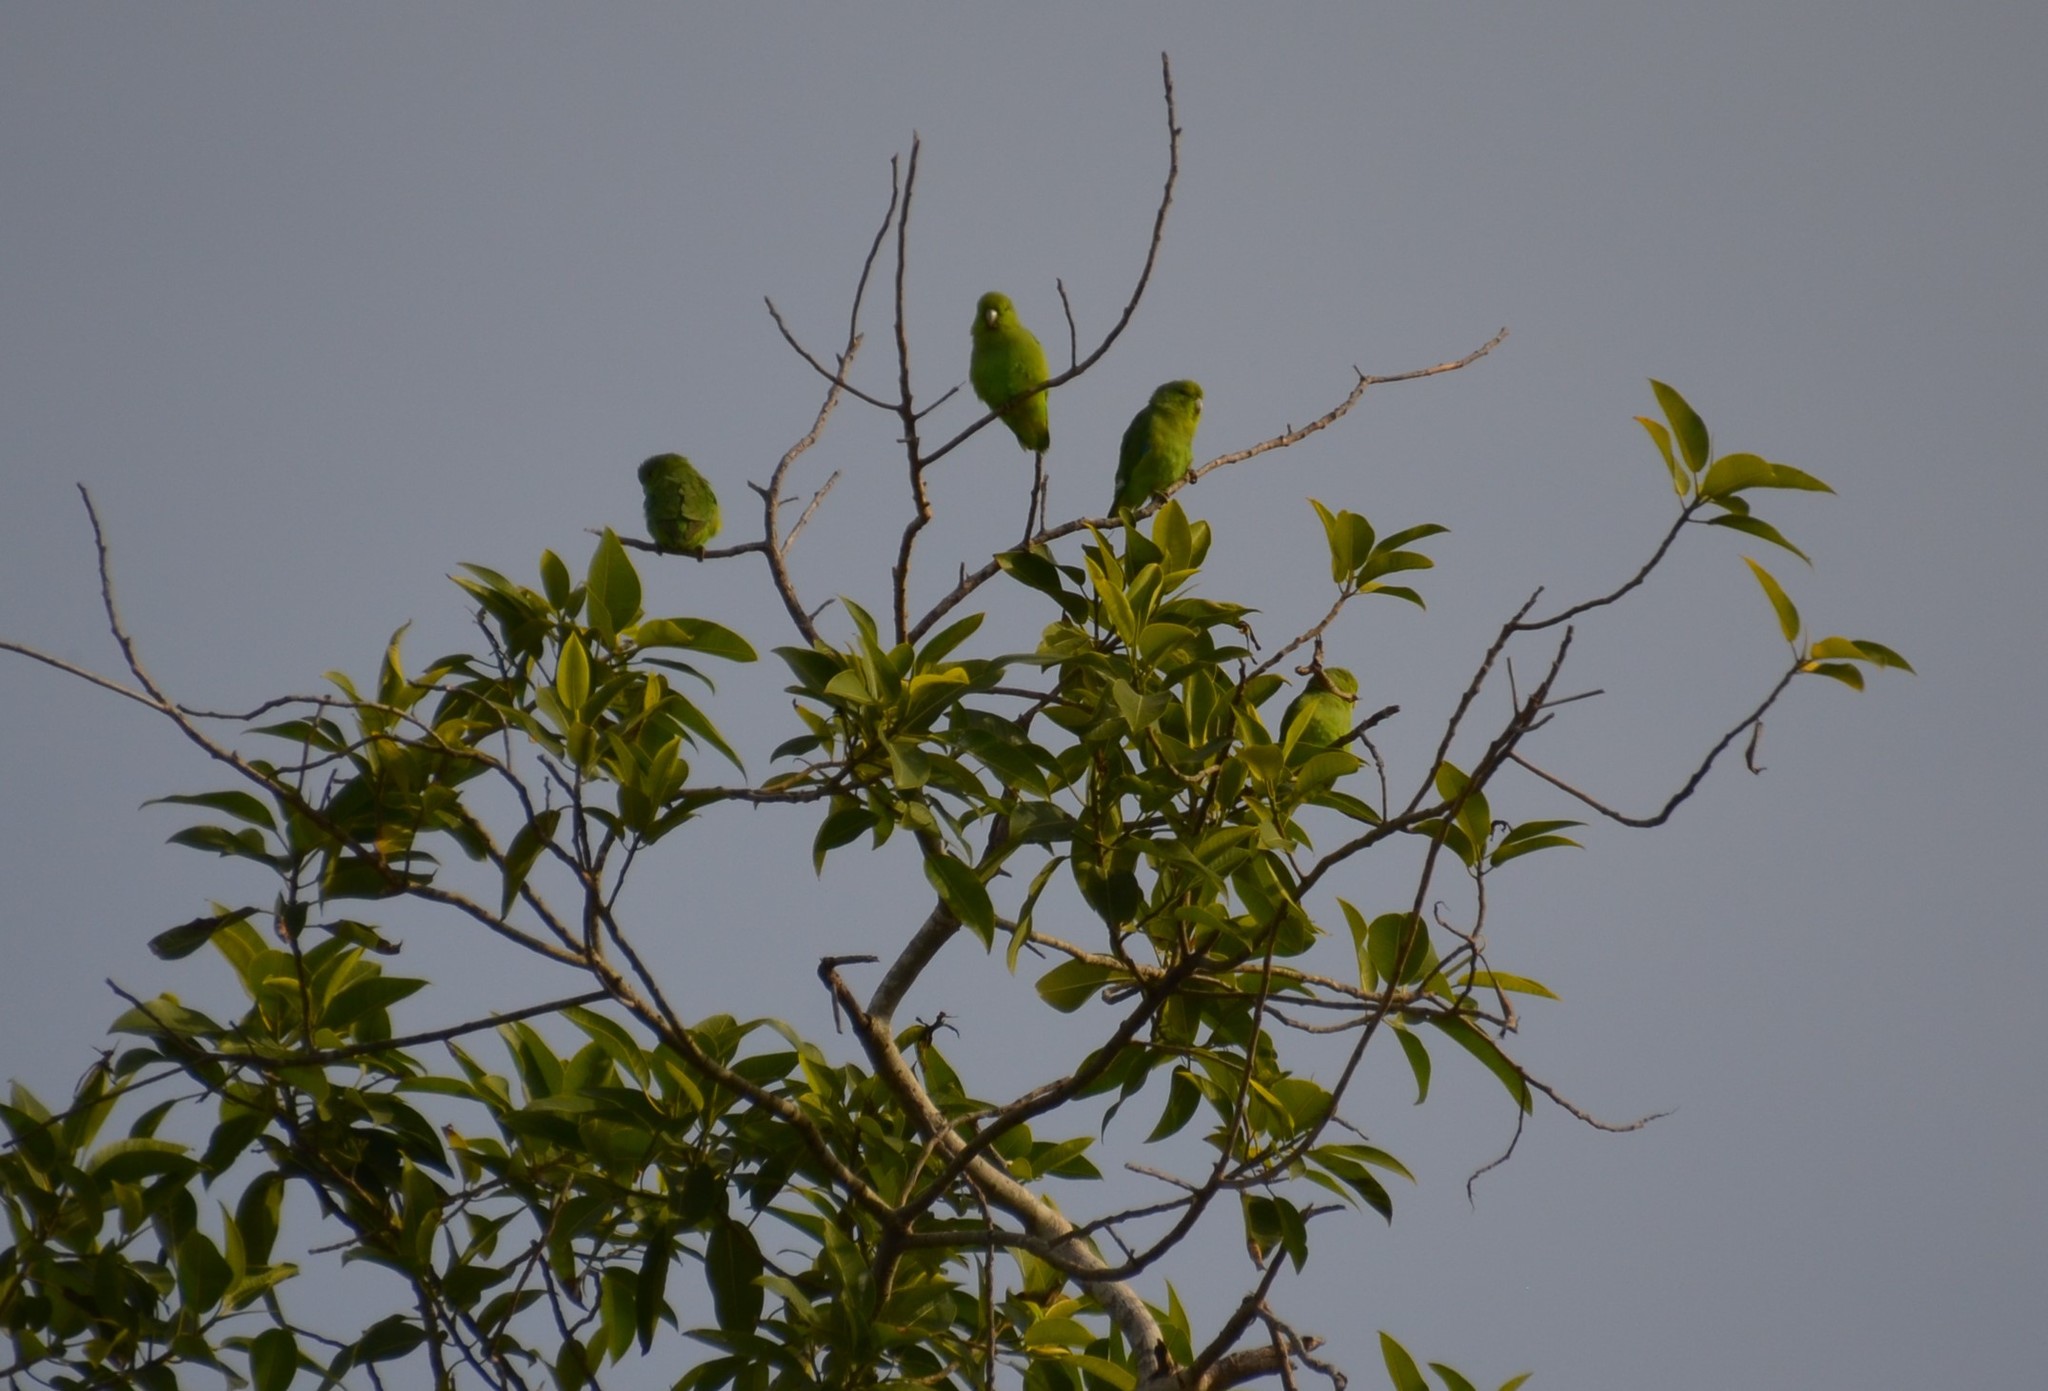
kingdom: Animalia
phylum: Chordata
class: Aves
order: Psittaciformes
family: Psittacidae
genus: Forpus
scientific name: Forpus cyanopygius
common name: Mexican parrotlet
